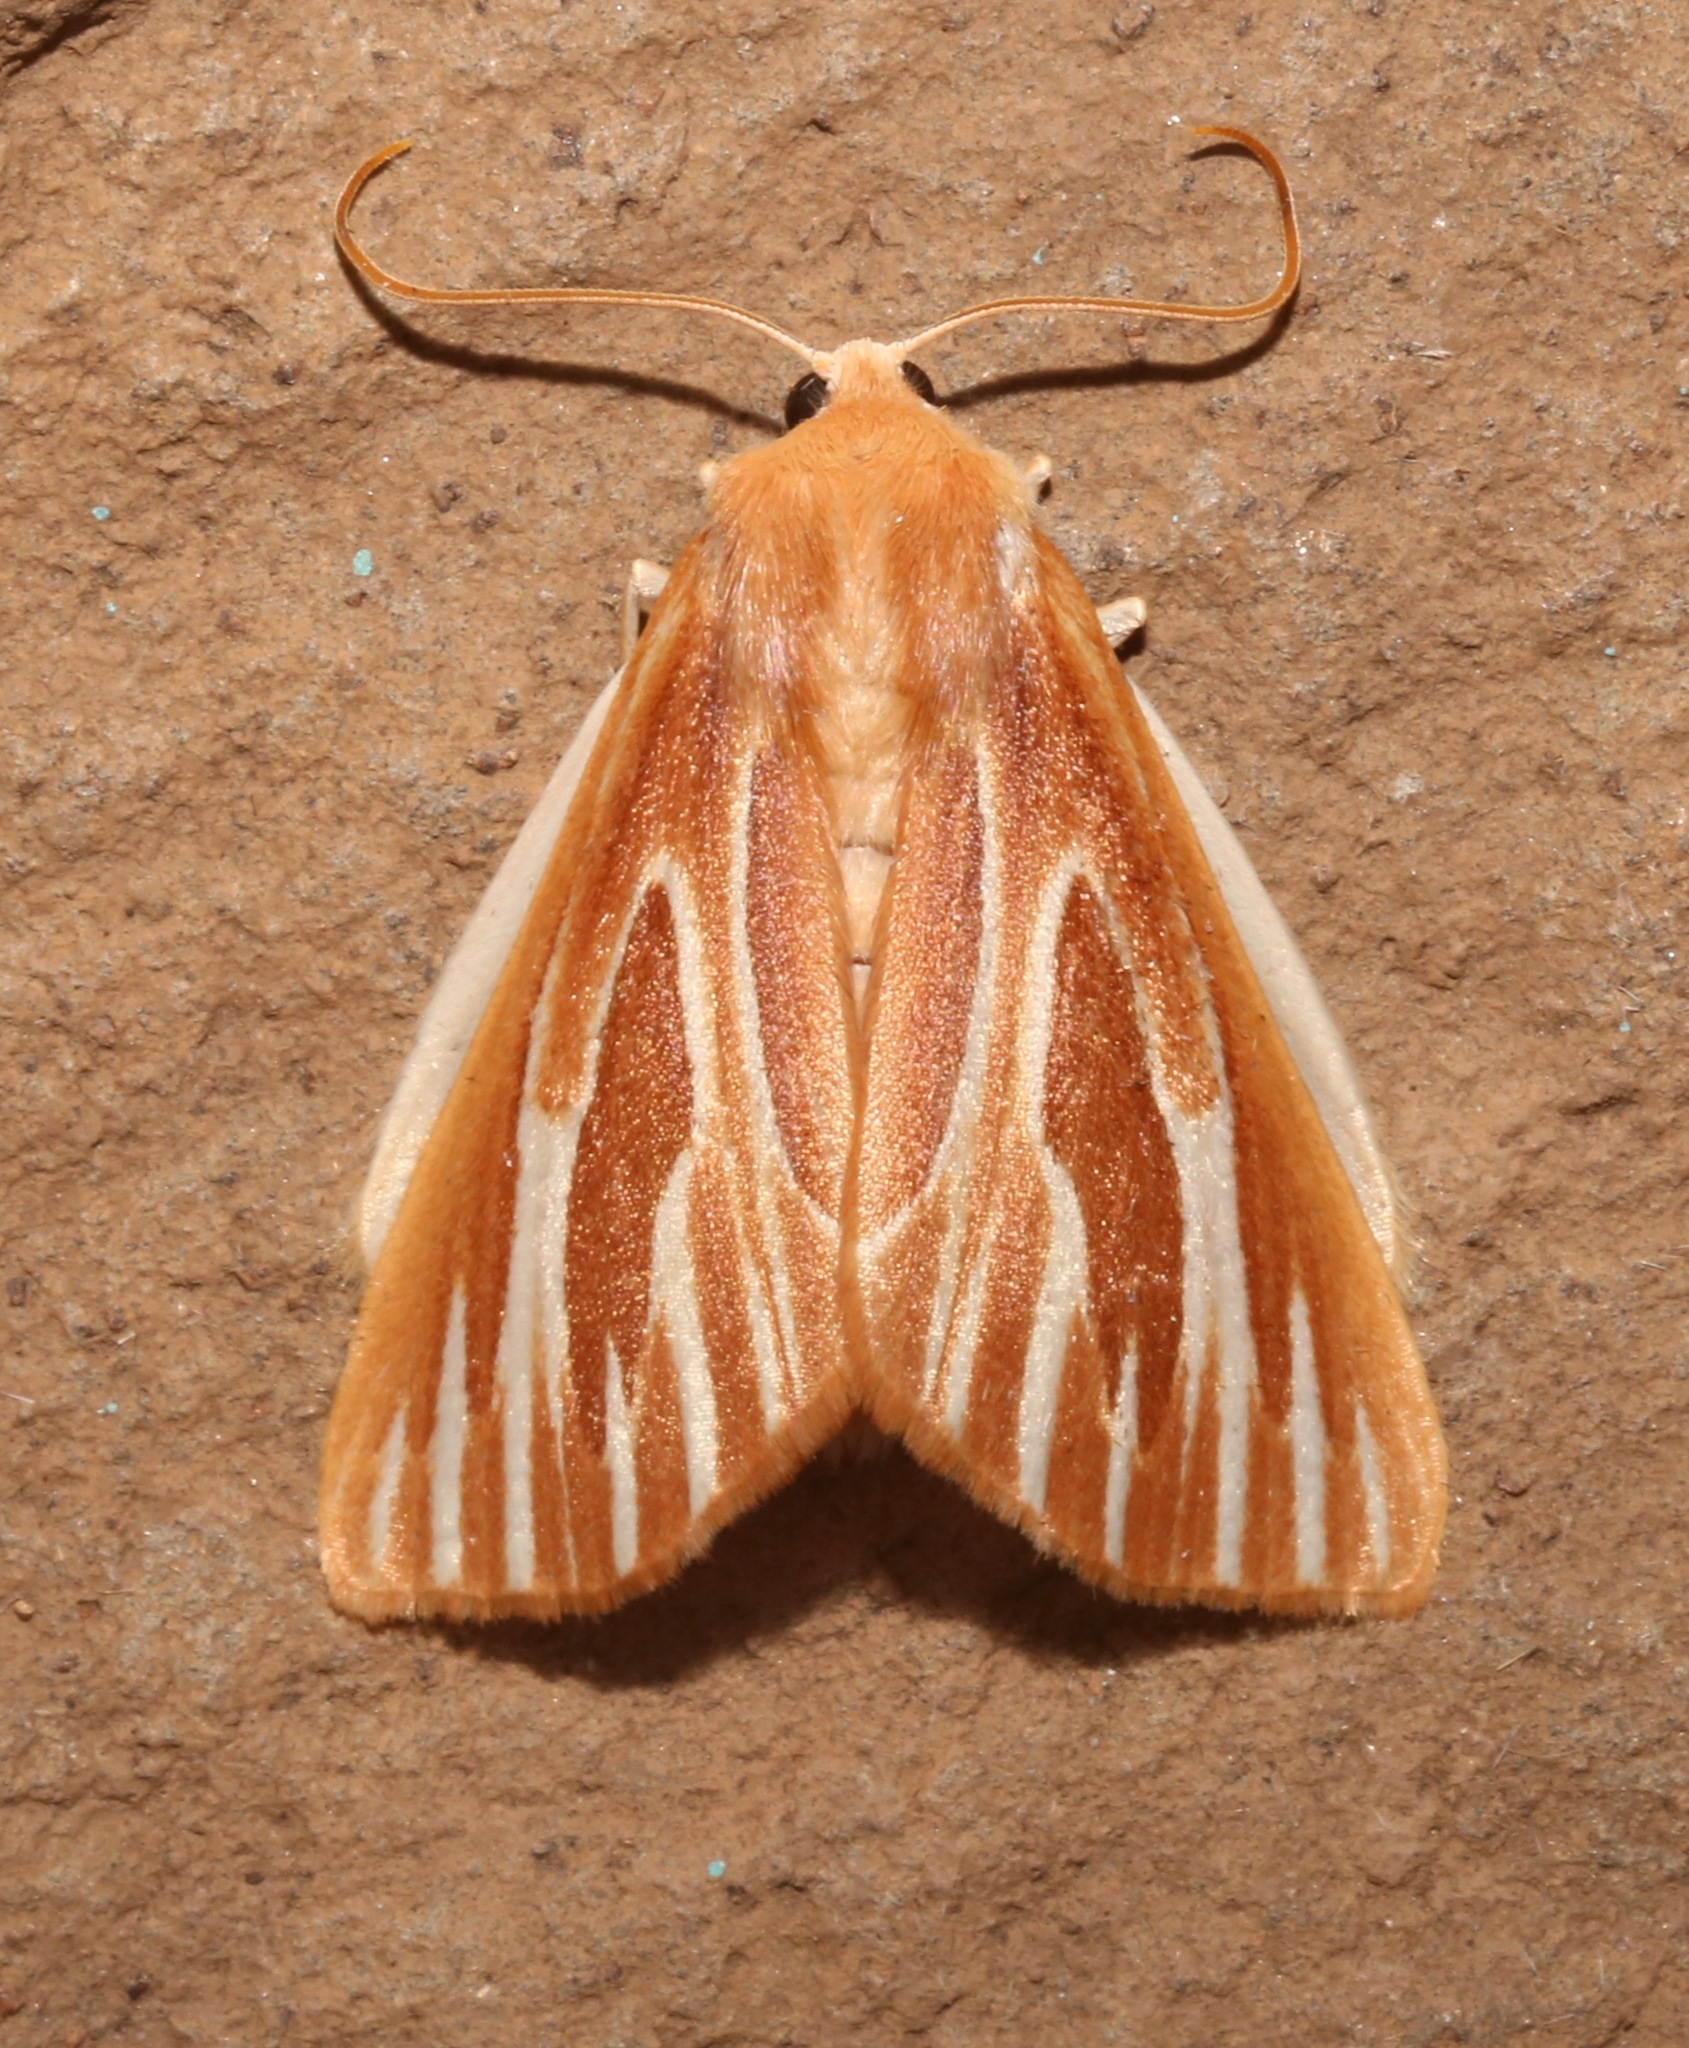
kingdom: Animalia
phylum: Arthropoda
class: Insecta
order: Lepidoptera
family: Geometridae
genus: Sabulodes
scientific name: Sabulodes niveostriata
